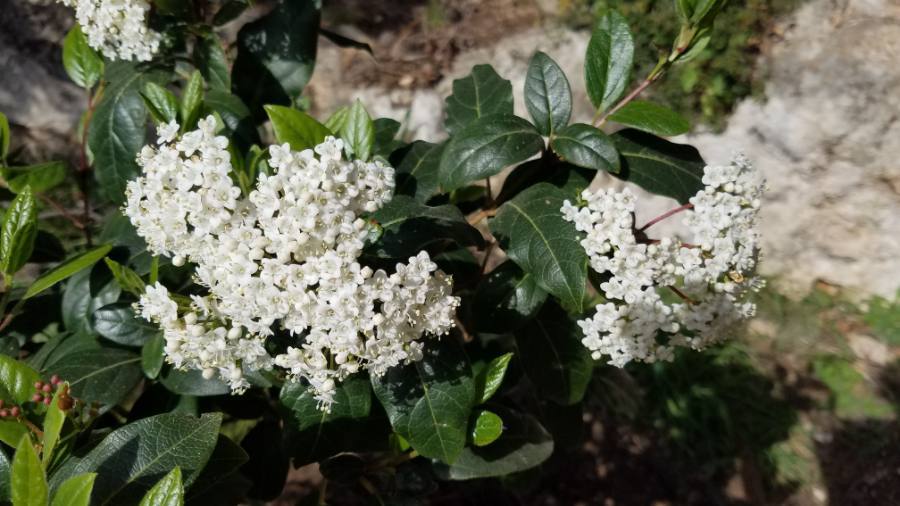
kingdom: Plantae
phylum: Tracheophyta
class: Magnoliopsida
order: Dipsacales
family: Viburnaceae
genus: Viburnum
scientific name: Viburnum tinus
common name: Laurustinus
